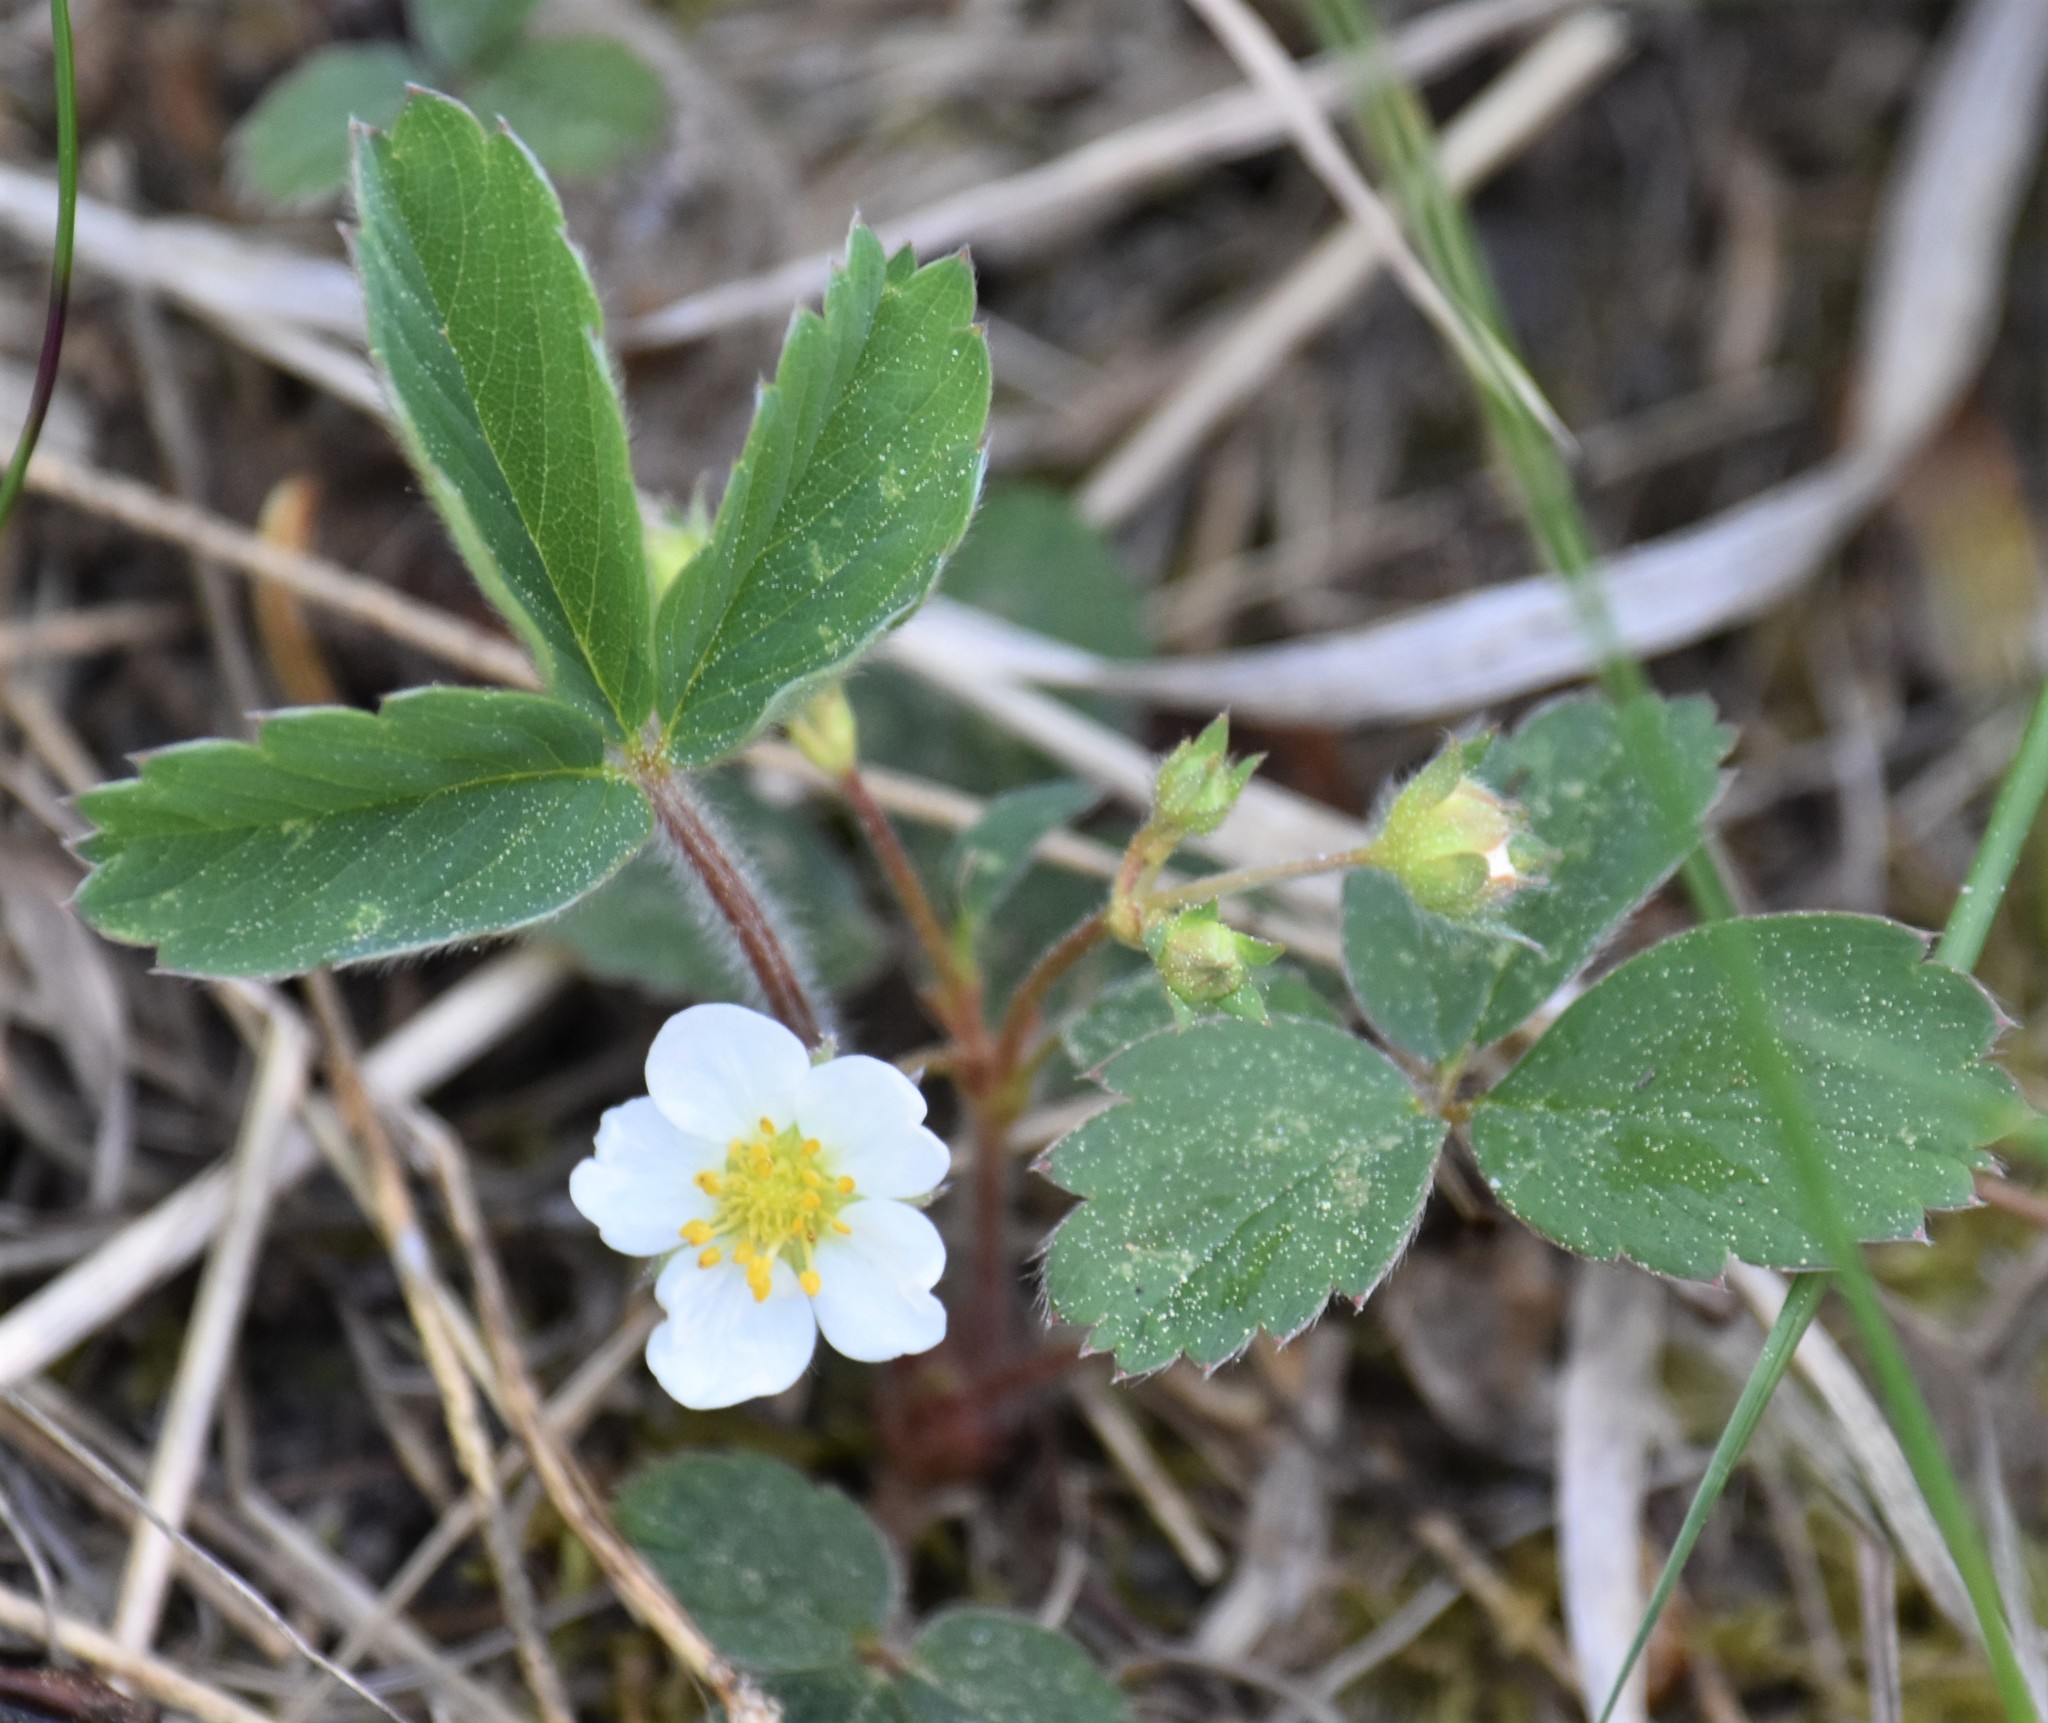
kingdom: Plantae
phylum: Tracheophyta
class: Magnoliopsida
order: Rosales
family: Rosaceae
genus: Fragaria
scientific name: Fragaria virginiana
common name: Thickleaved wild strawberry
